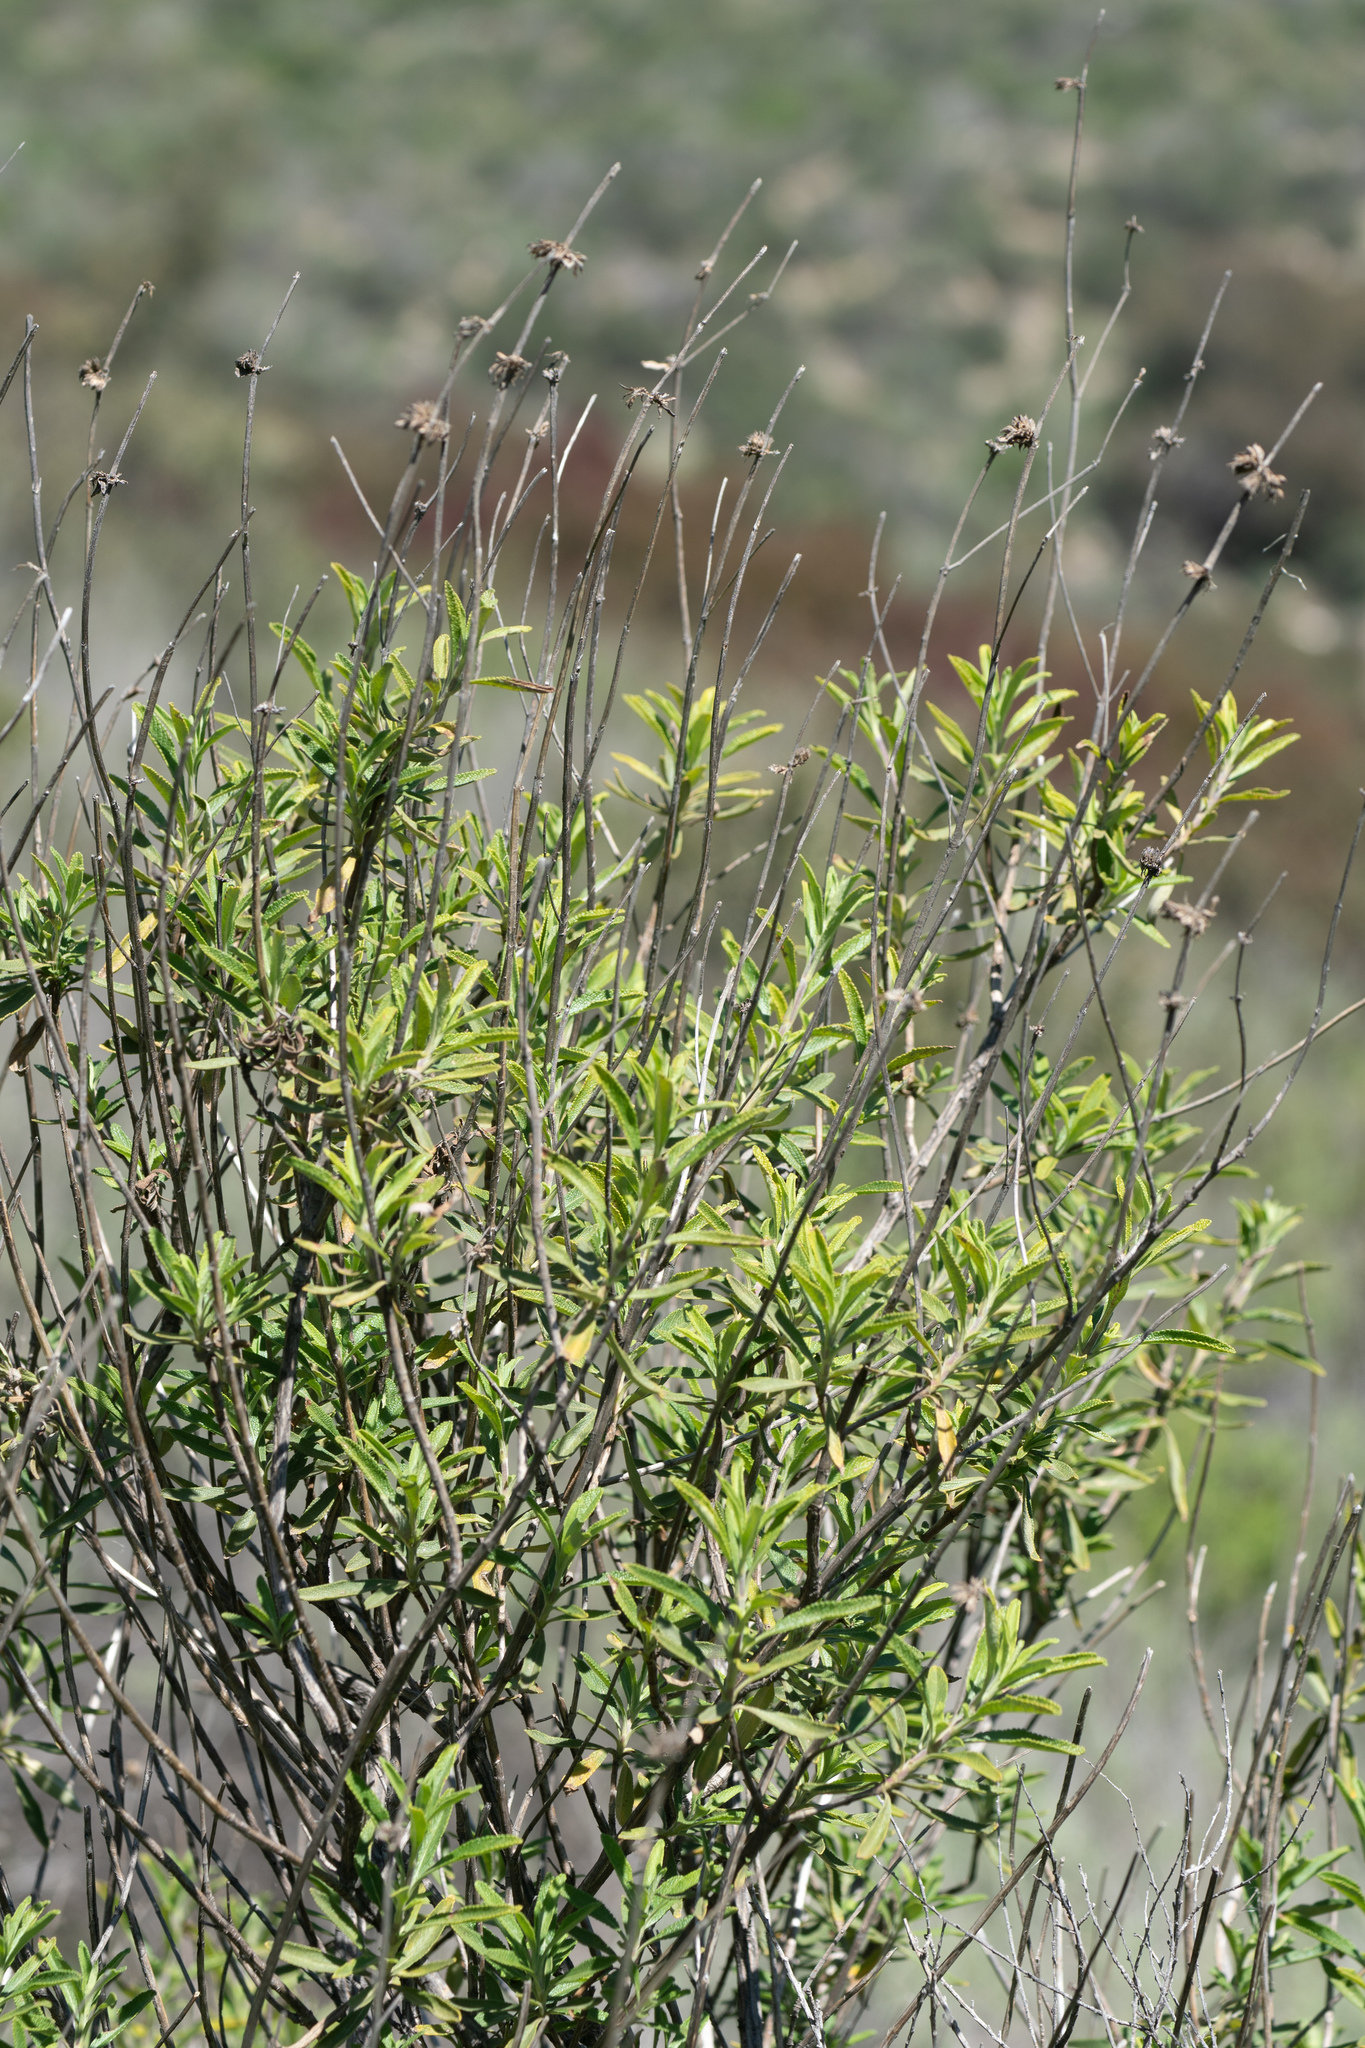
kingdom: Plantae
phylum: Tracheophyta
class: Magnoliopsida
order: Lamiales
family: Lamiaceae
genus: Salvia
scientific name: Salvia mellifera
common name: Black sage
